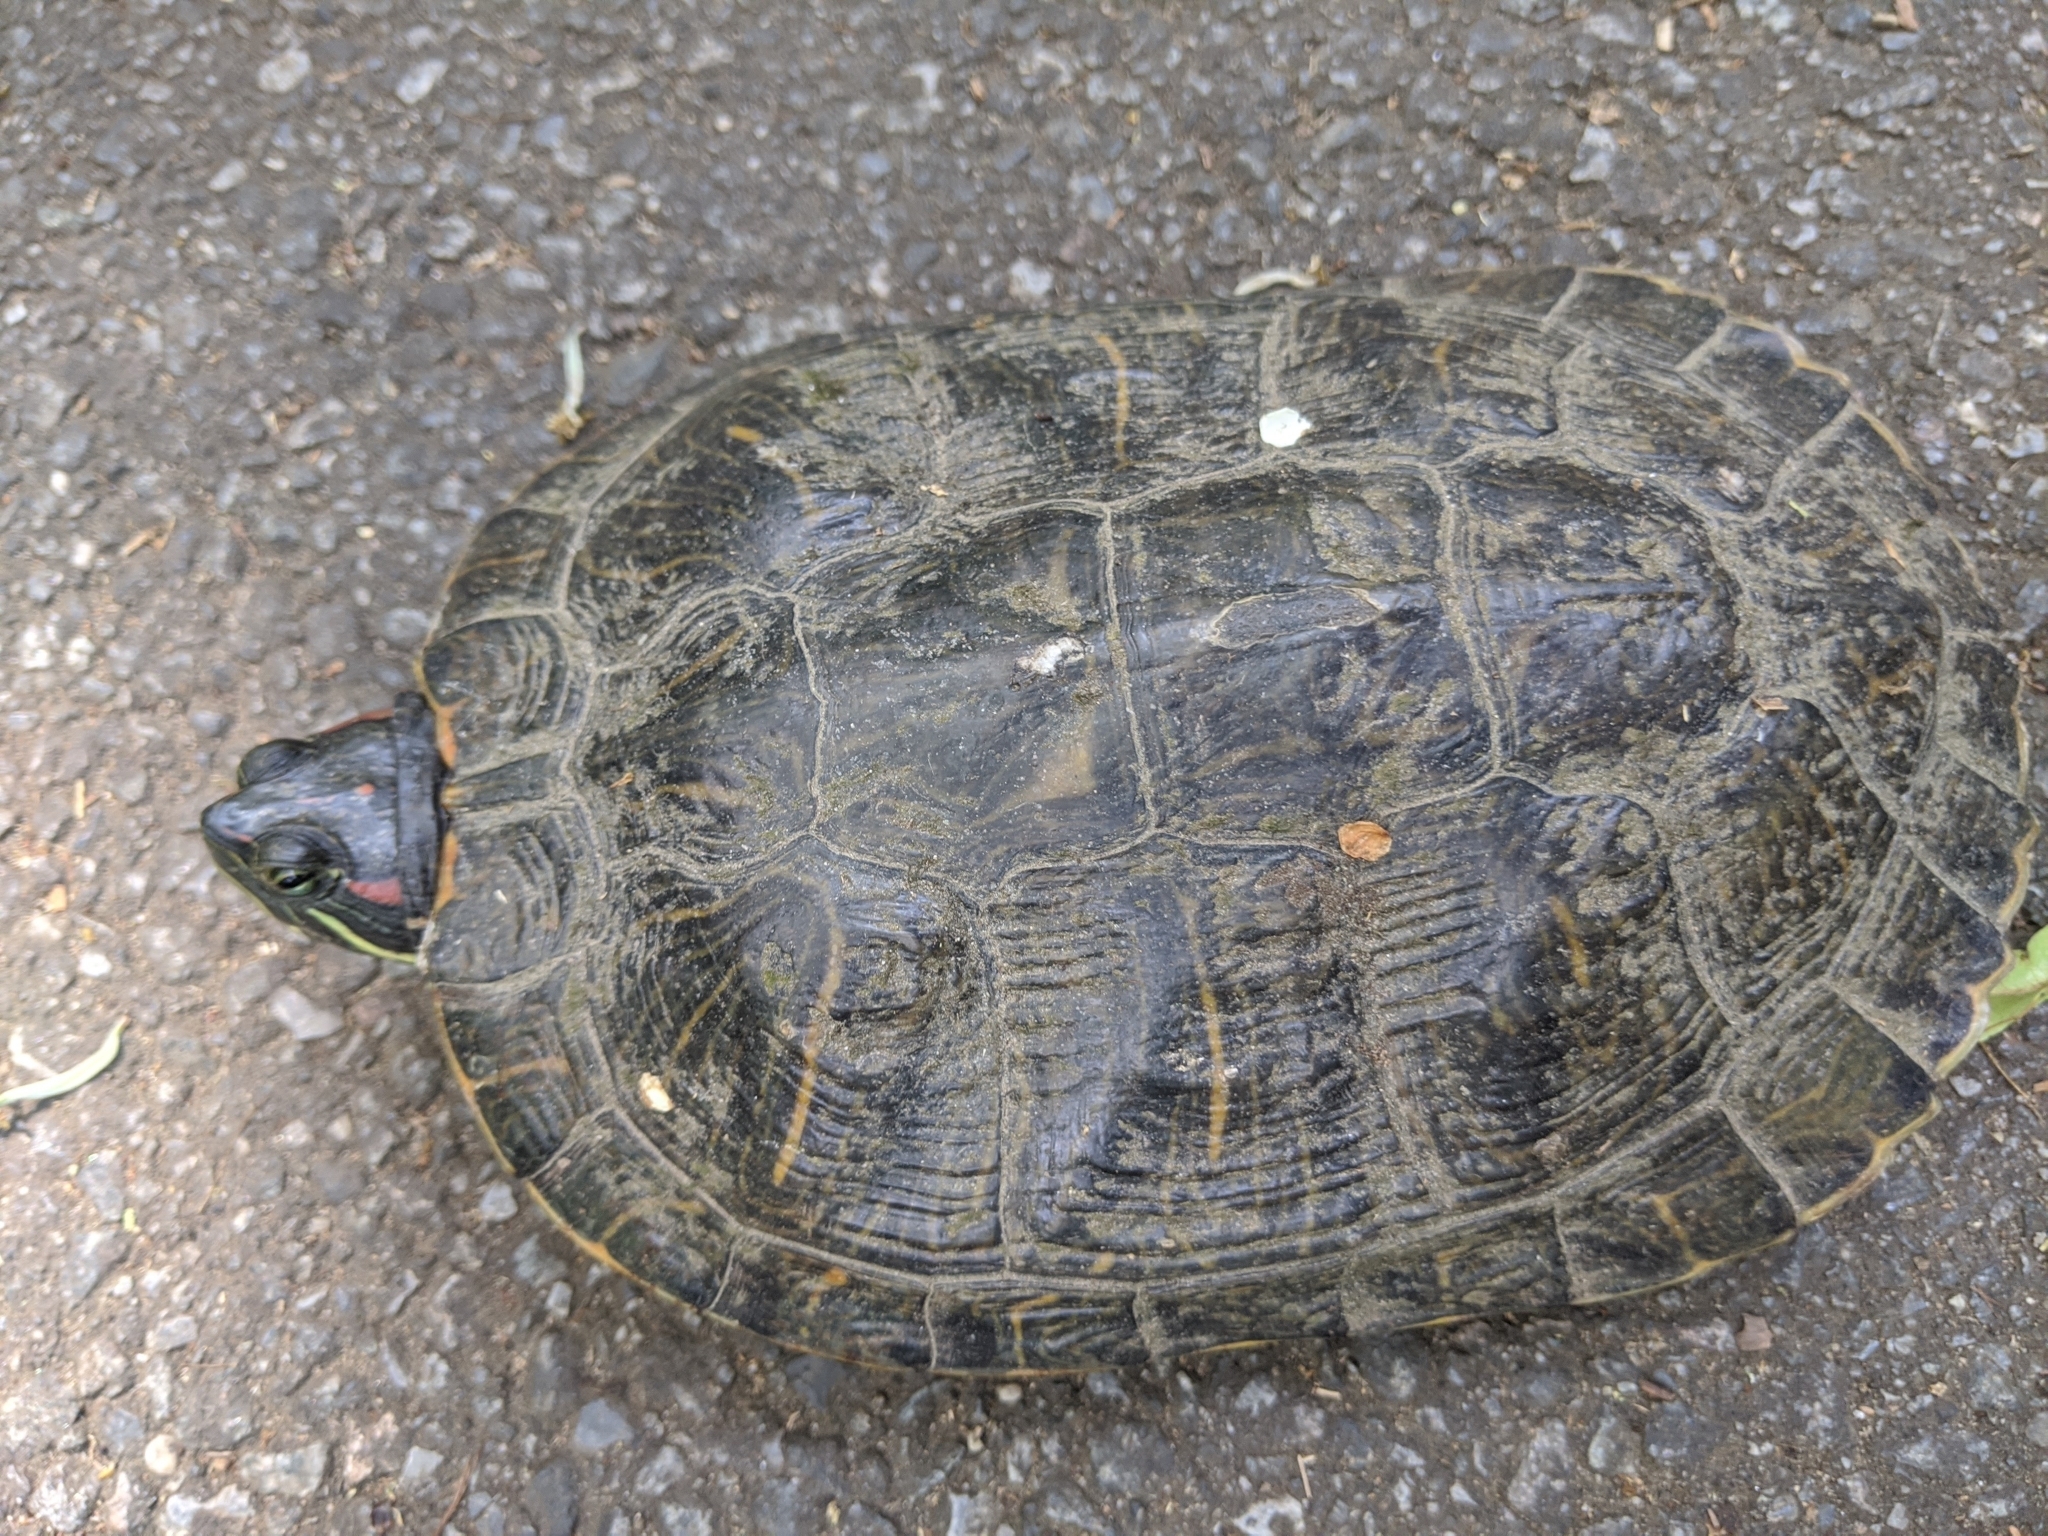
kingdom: Animalia
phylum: Chordata
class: Testudines
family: Emydidae
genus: Trachemys
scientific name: Trachemys scripta
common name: Slider
